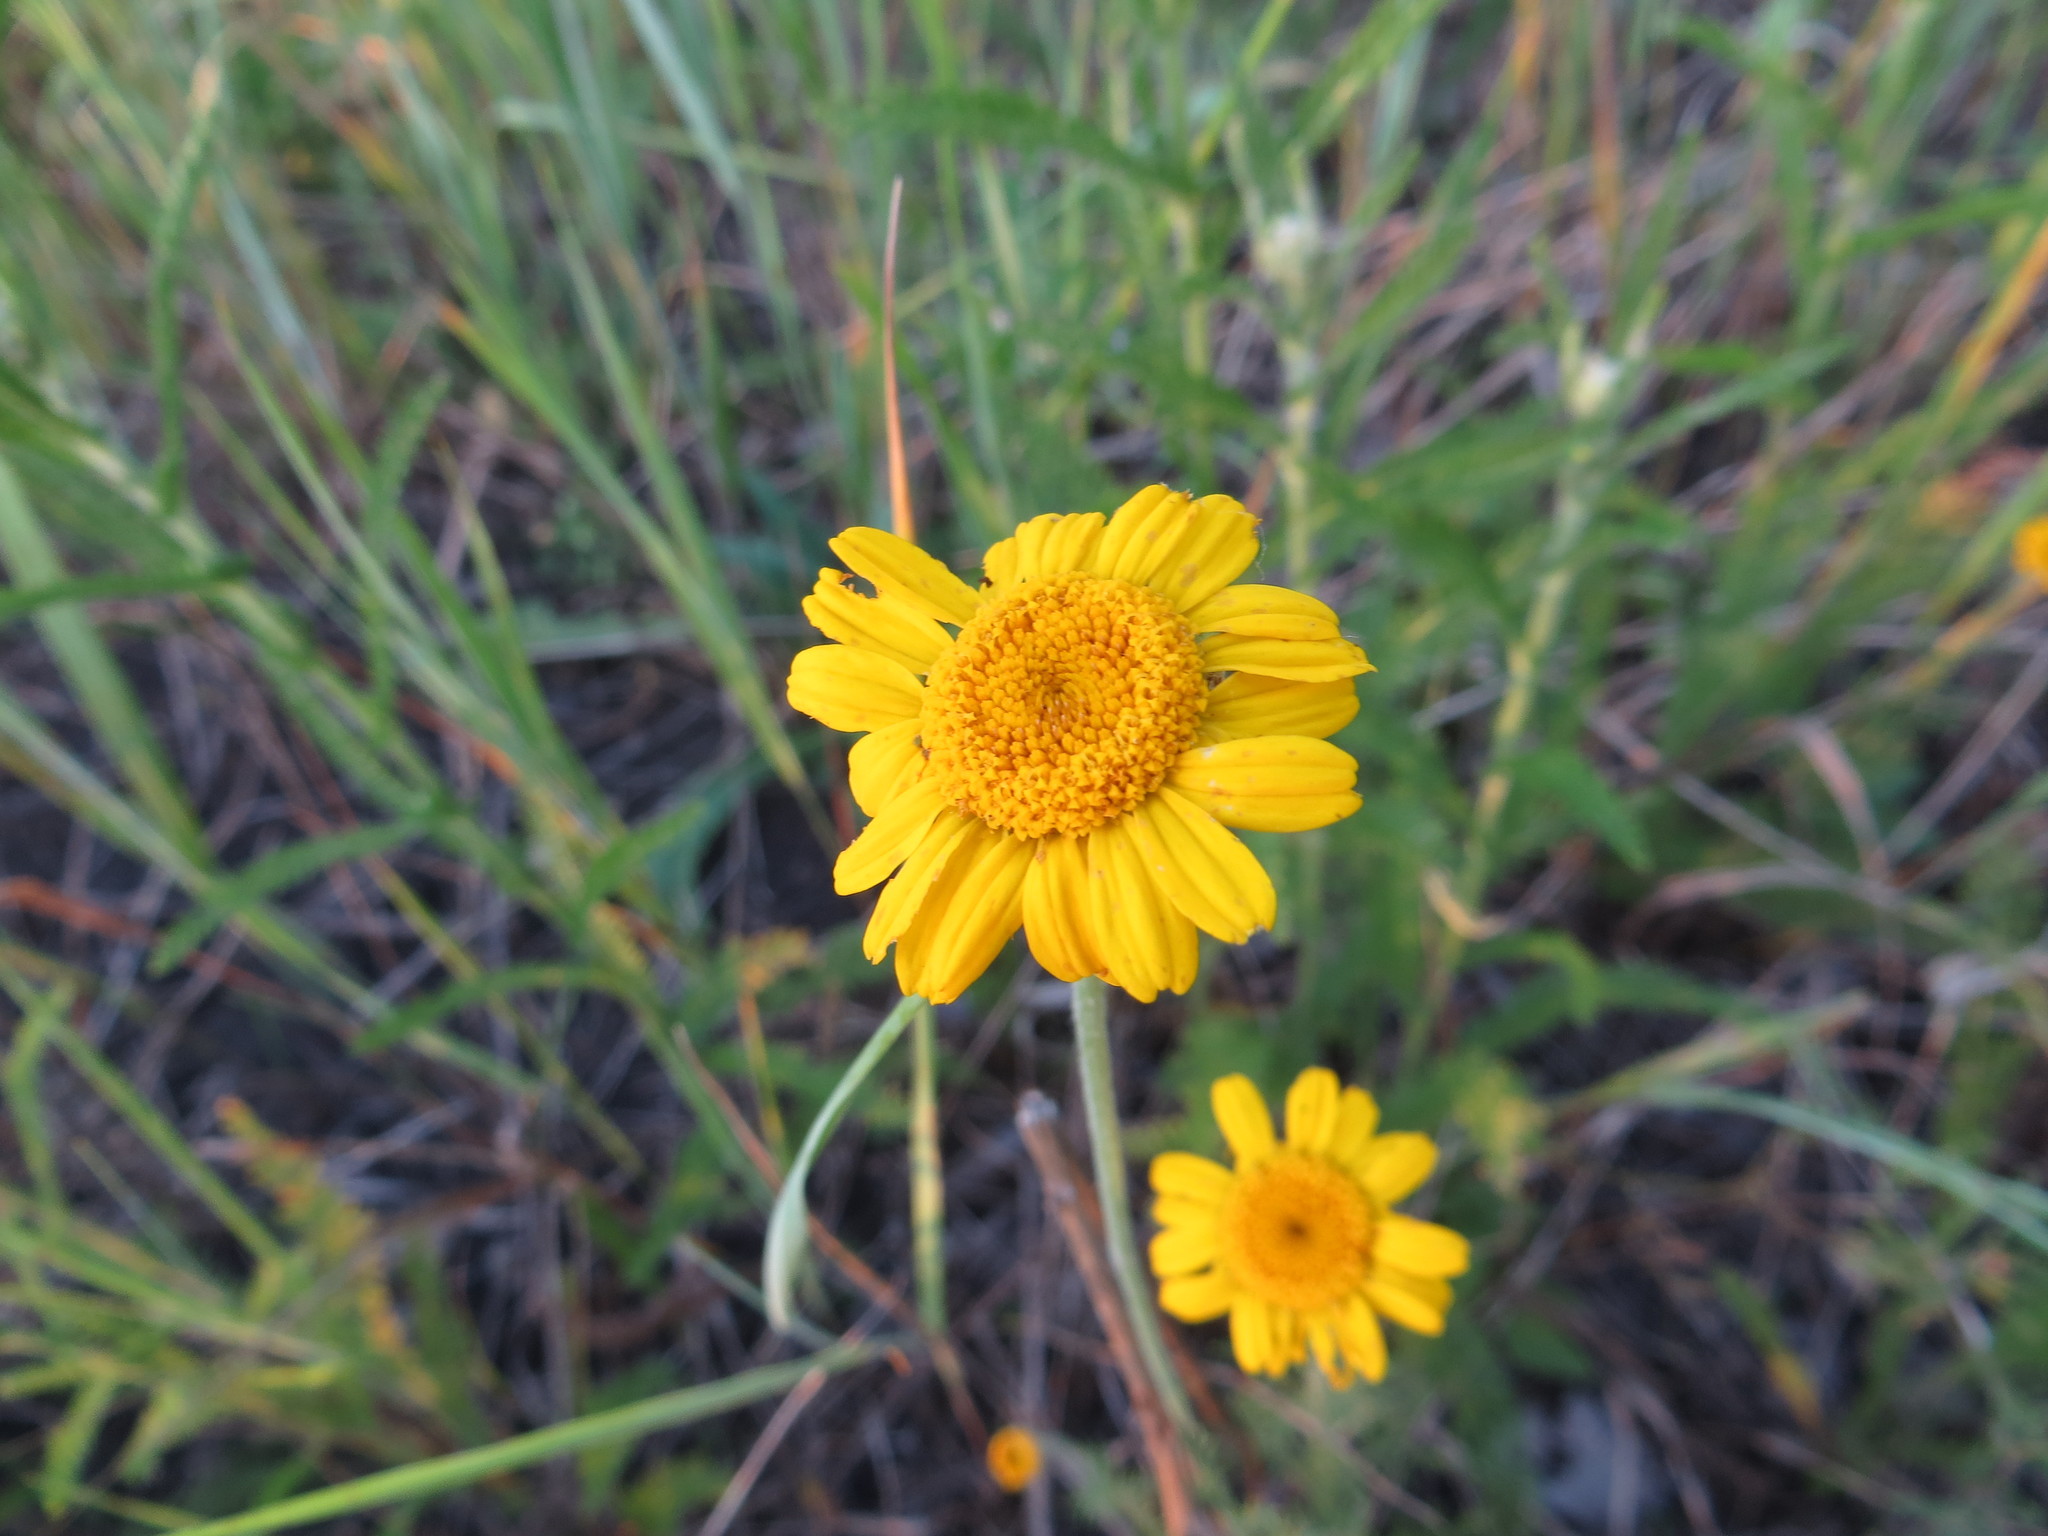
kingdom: Plantae
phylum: Tracheophyta
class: Magnoliopsida
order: Asterales
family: Asteraceae
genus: Cota
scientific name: Cota tinctoria
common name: Golden chamomile
